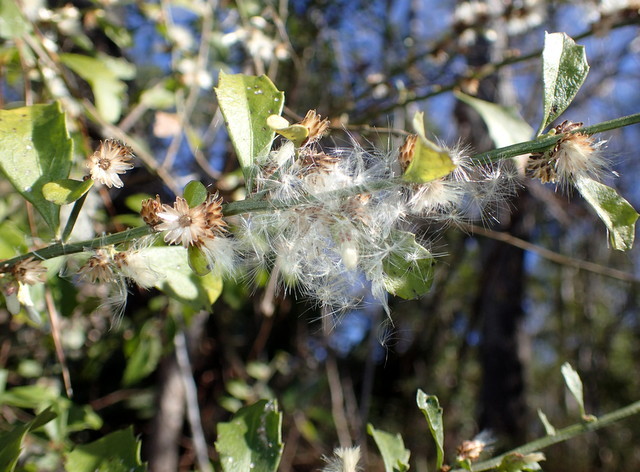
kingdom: Plantae
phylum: Tracheophyta
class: Magnoliopsida
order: Asterales
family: Asteraceae
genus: Baccharis
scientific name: Baccharis glomeruliflora
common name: Silverling groundsel bush
